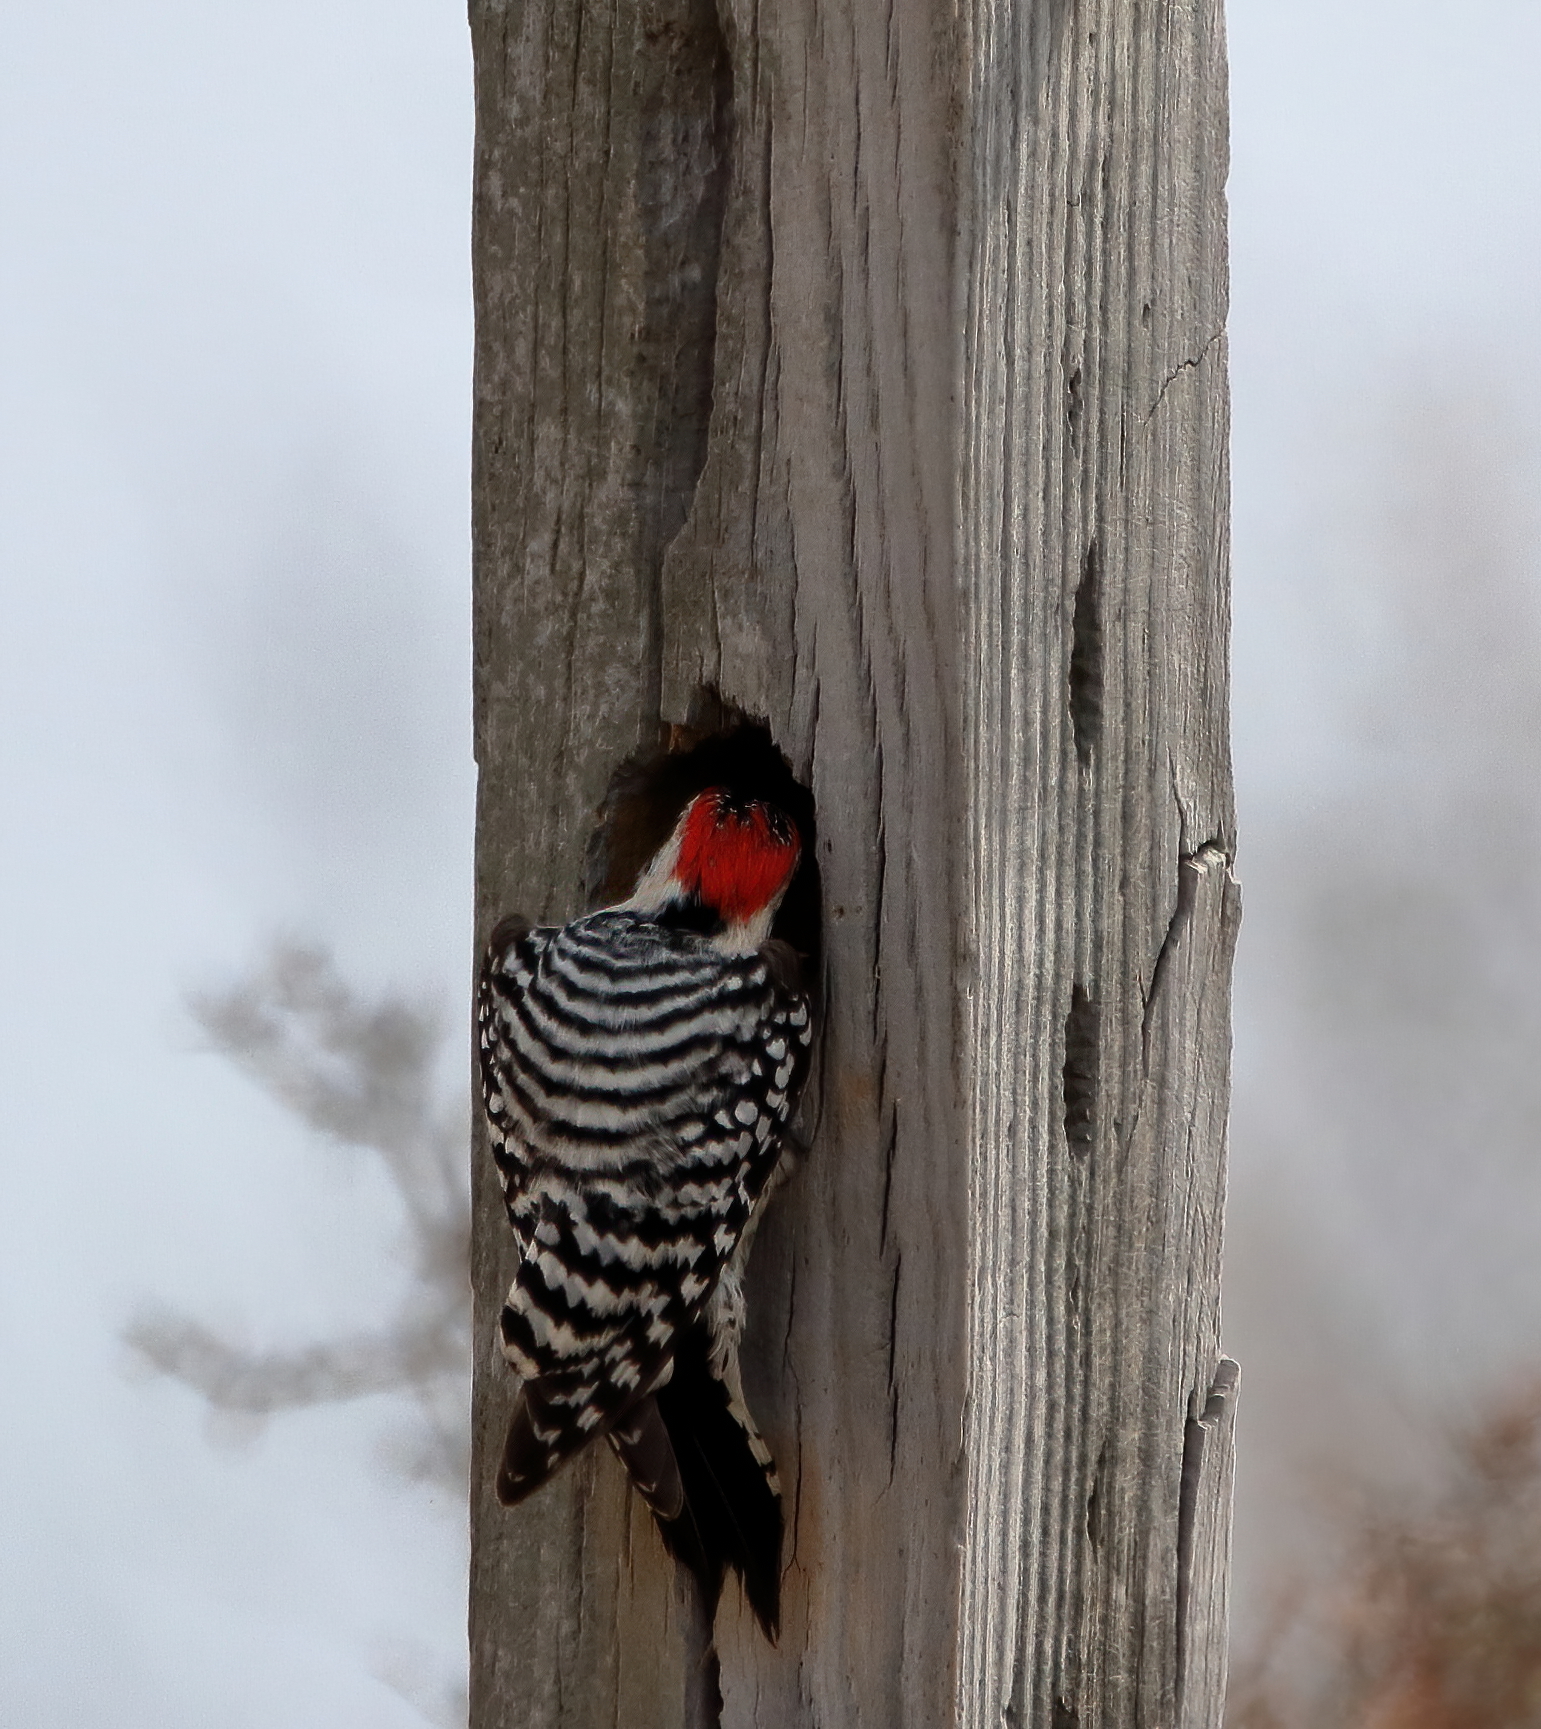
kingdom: Animalia
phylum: Chordata
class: Aves
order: Piciformes
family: Picidae
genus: Dryobates
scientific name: Dryobates scalaris
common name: Ladder-backed woodpecker
